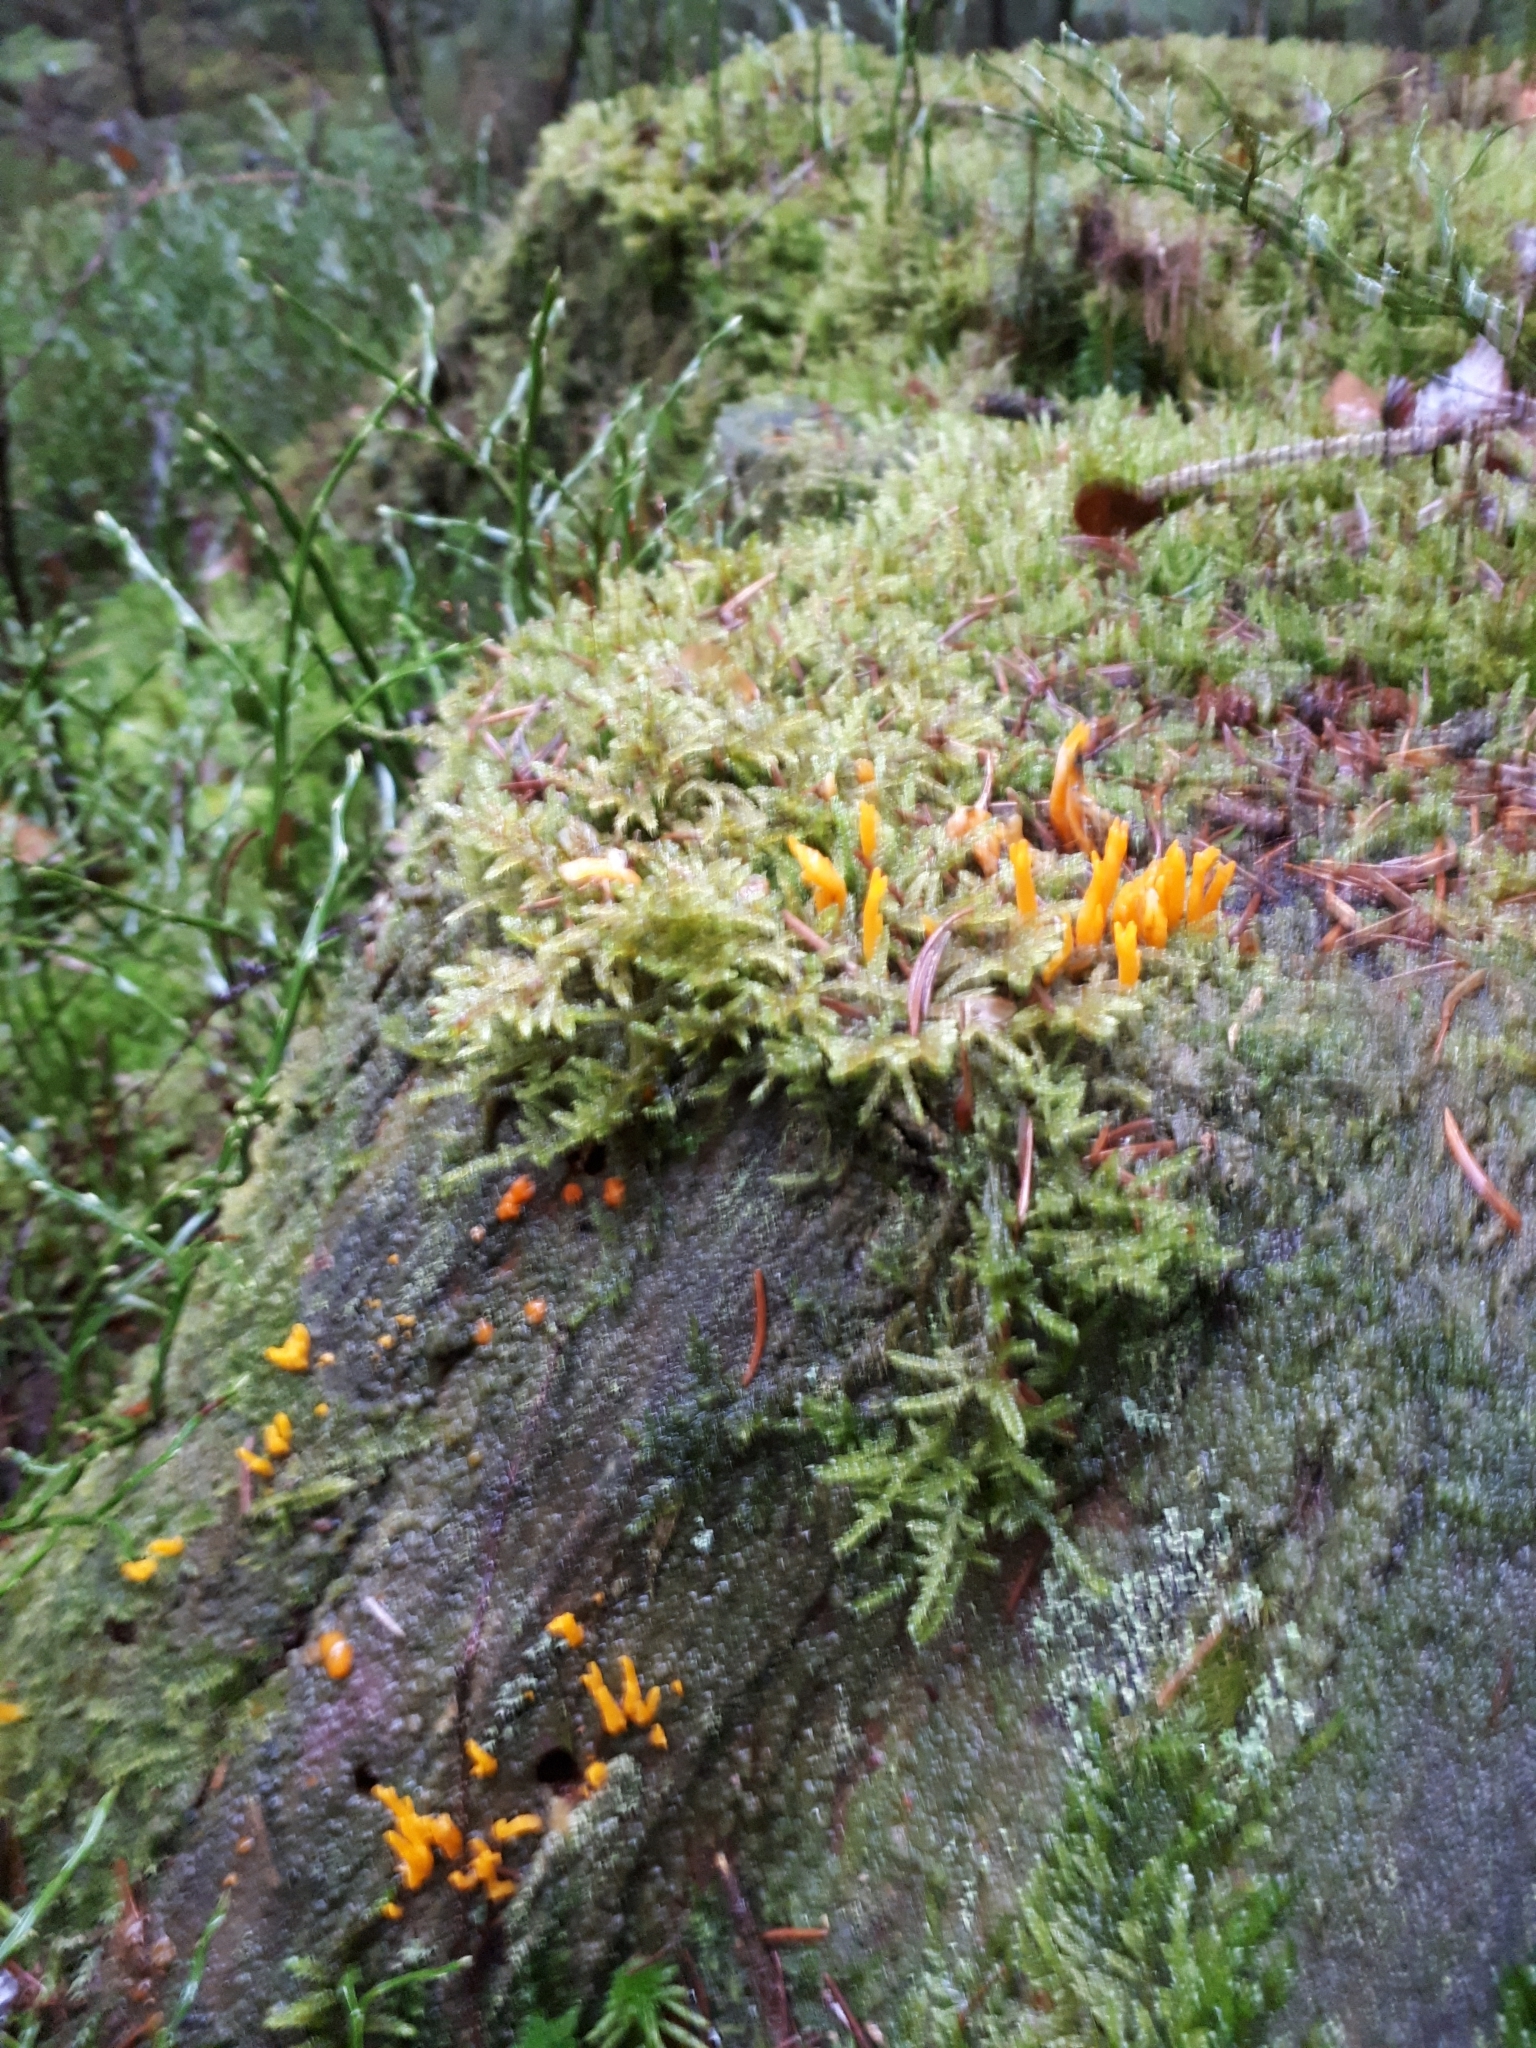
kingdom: Fungi
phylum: Basidiomycota
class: Dacrymycetes
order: Dacrymycetales
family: Dacrymycetaceae
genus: Calocera
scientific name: Calocera viscosa
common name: Yellow stagshorn
